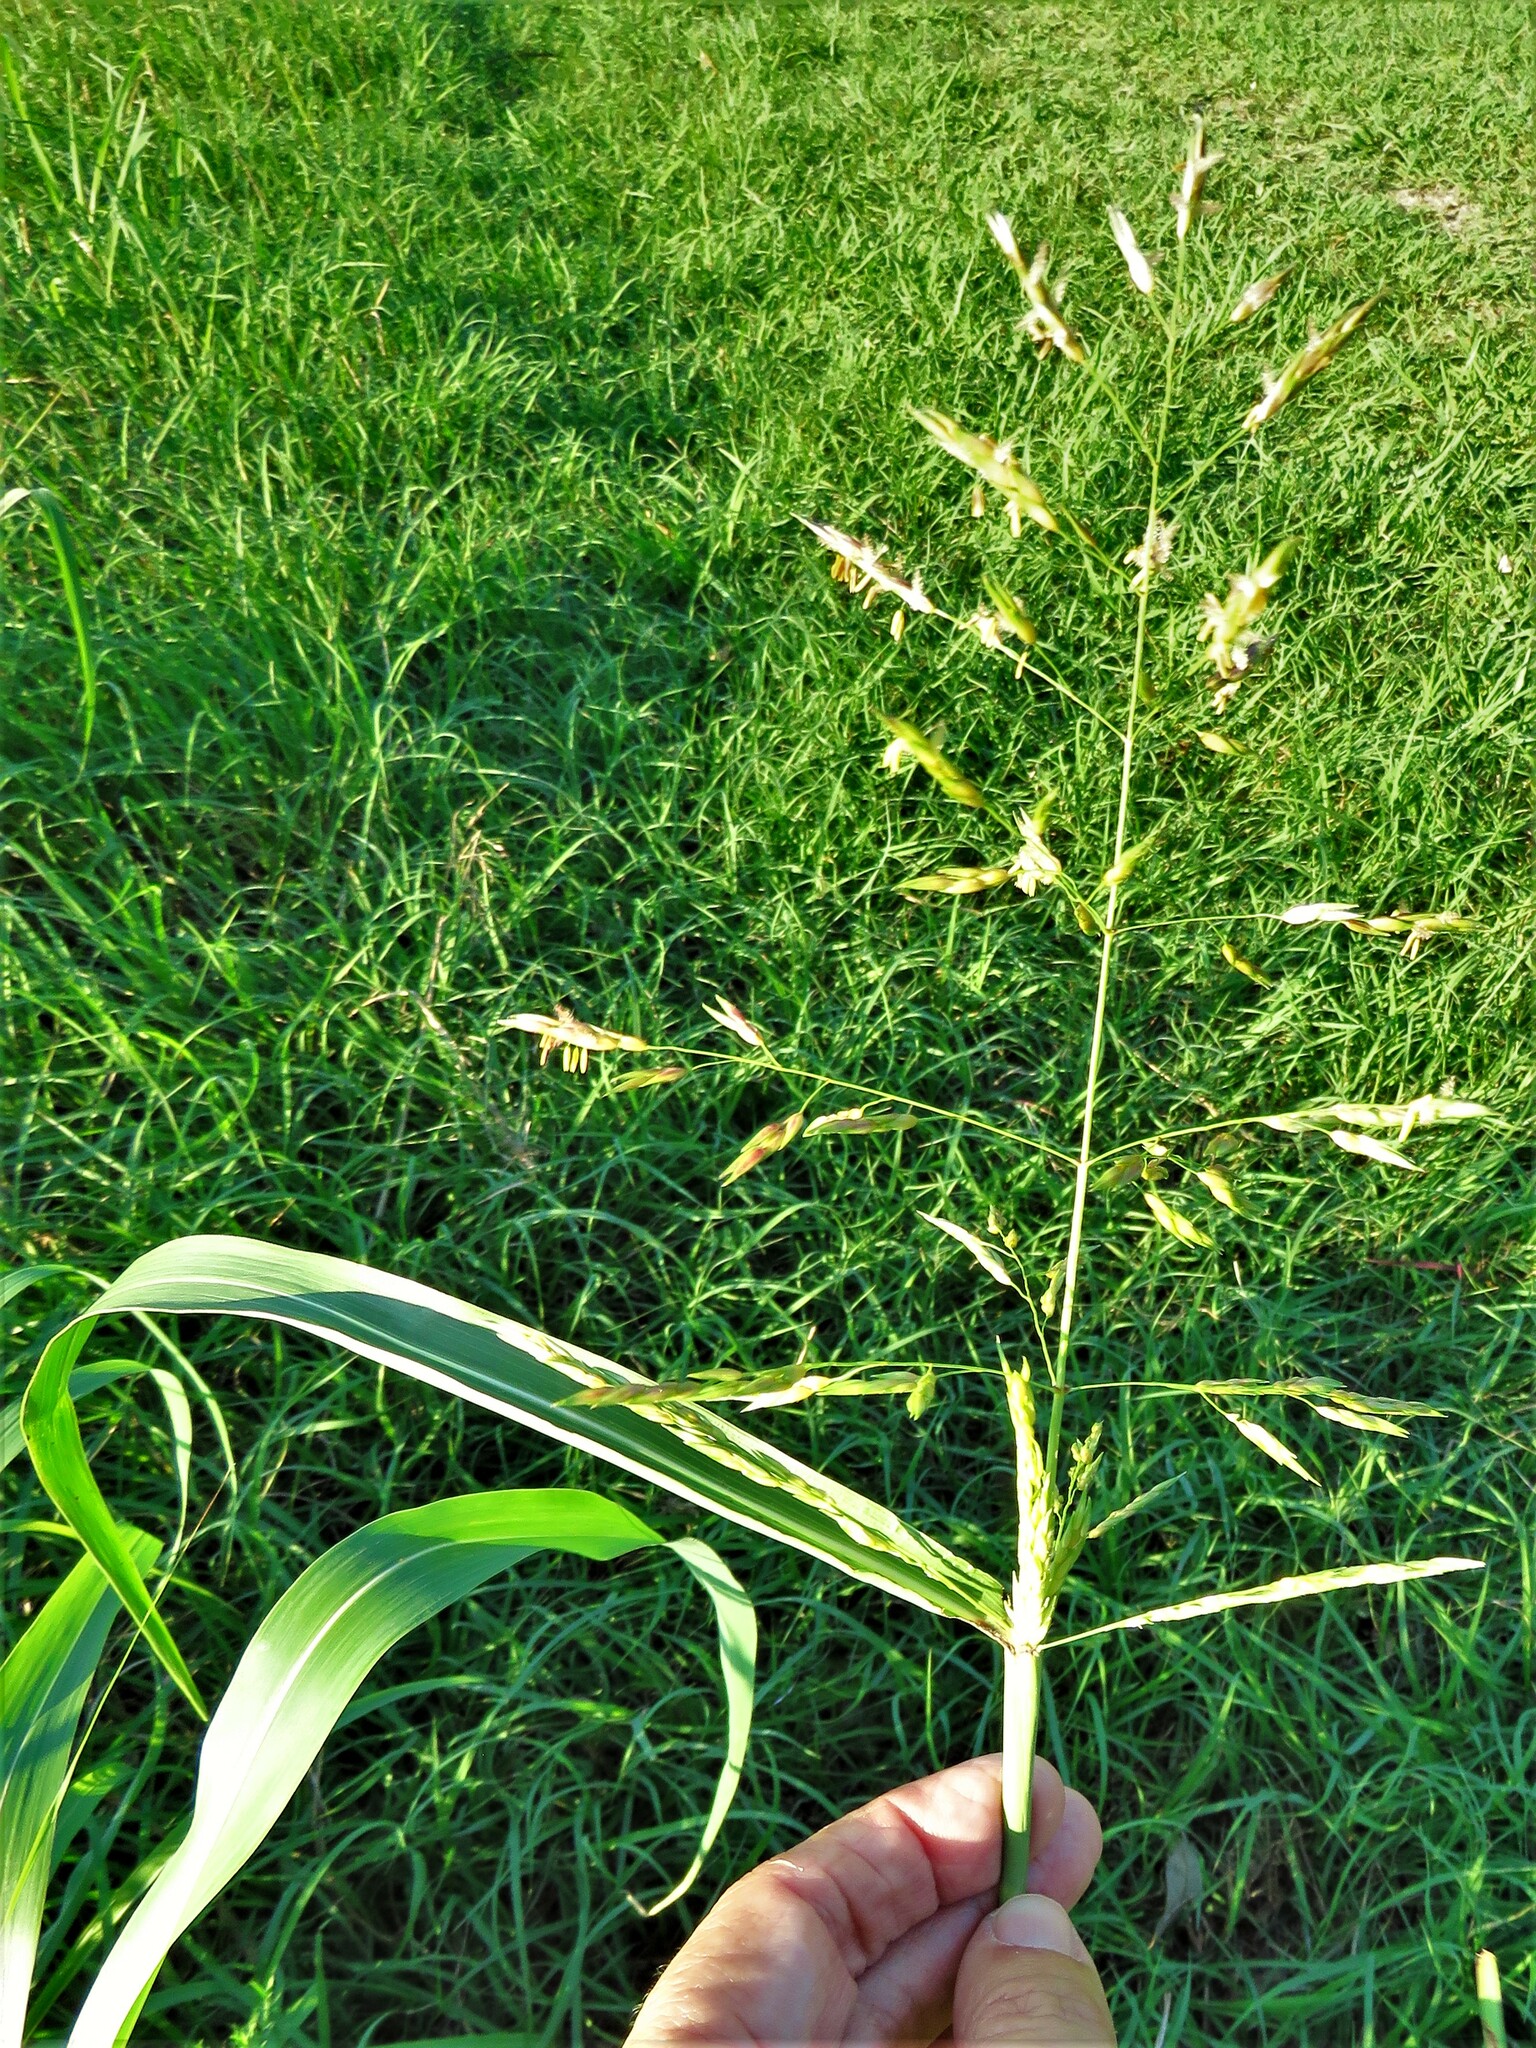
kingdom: Plantae
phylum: Tracheophyta
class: Liliopsida
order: Poales
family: Poaceae
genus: Sorghum
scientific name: Sorghum halepense
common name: Johnson-grass
